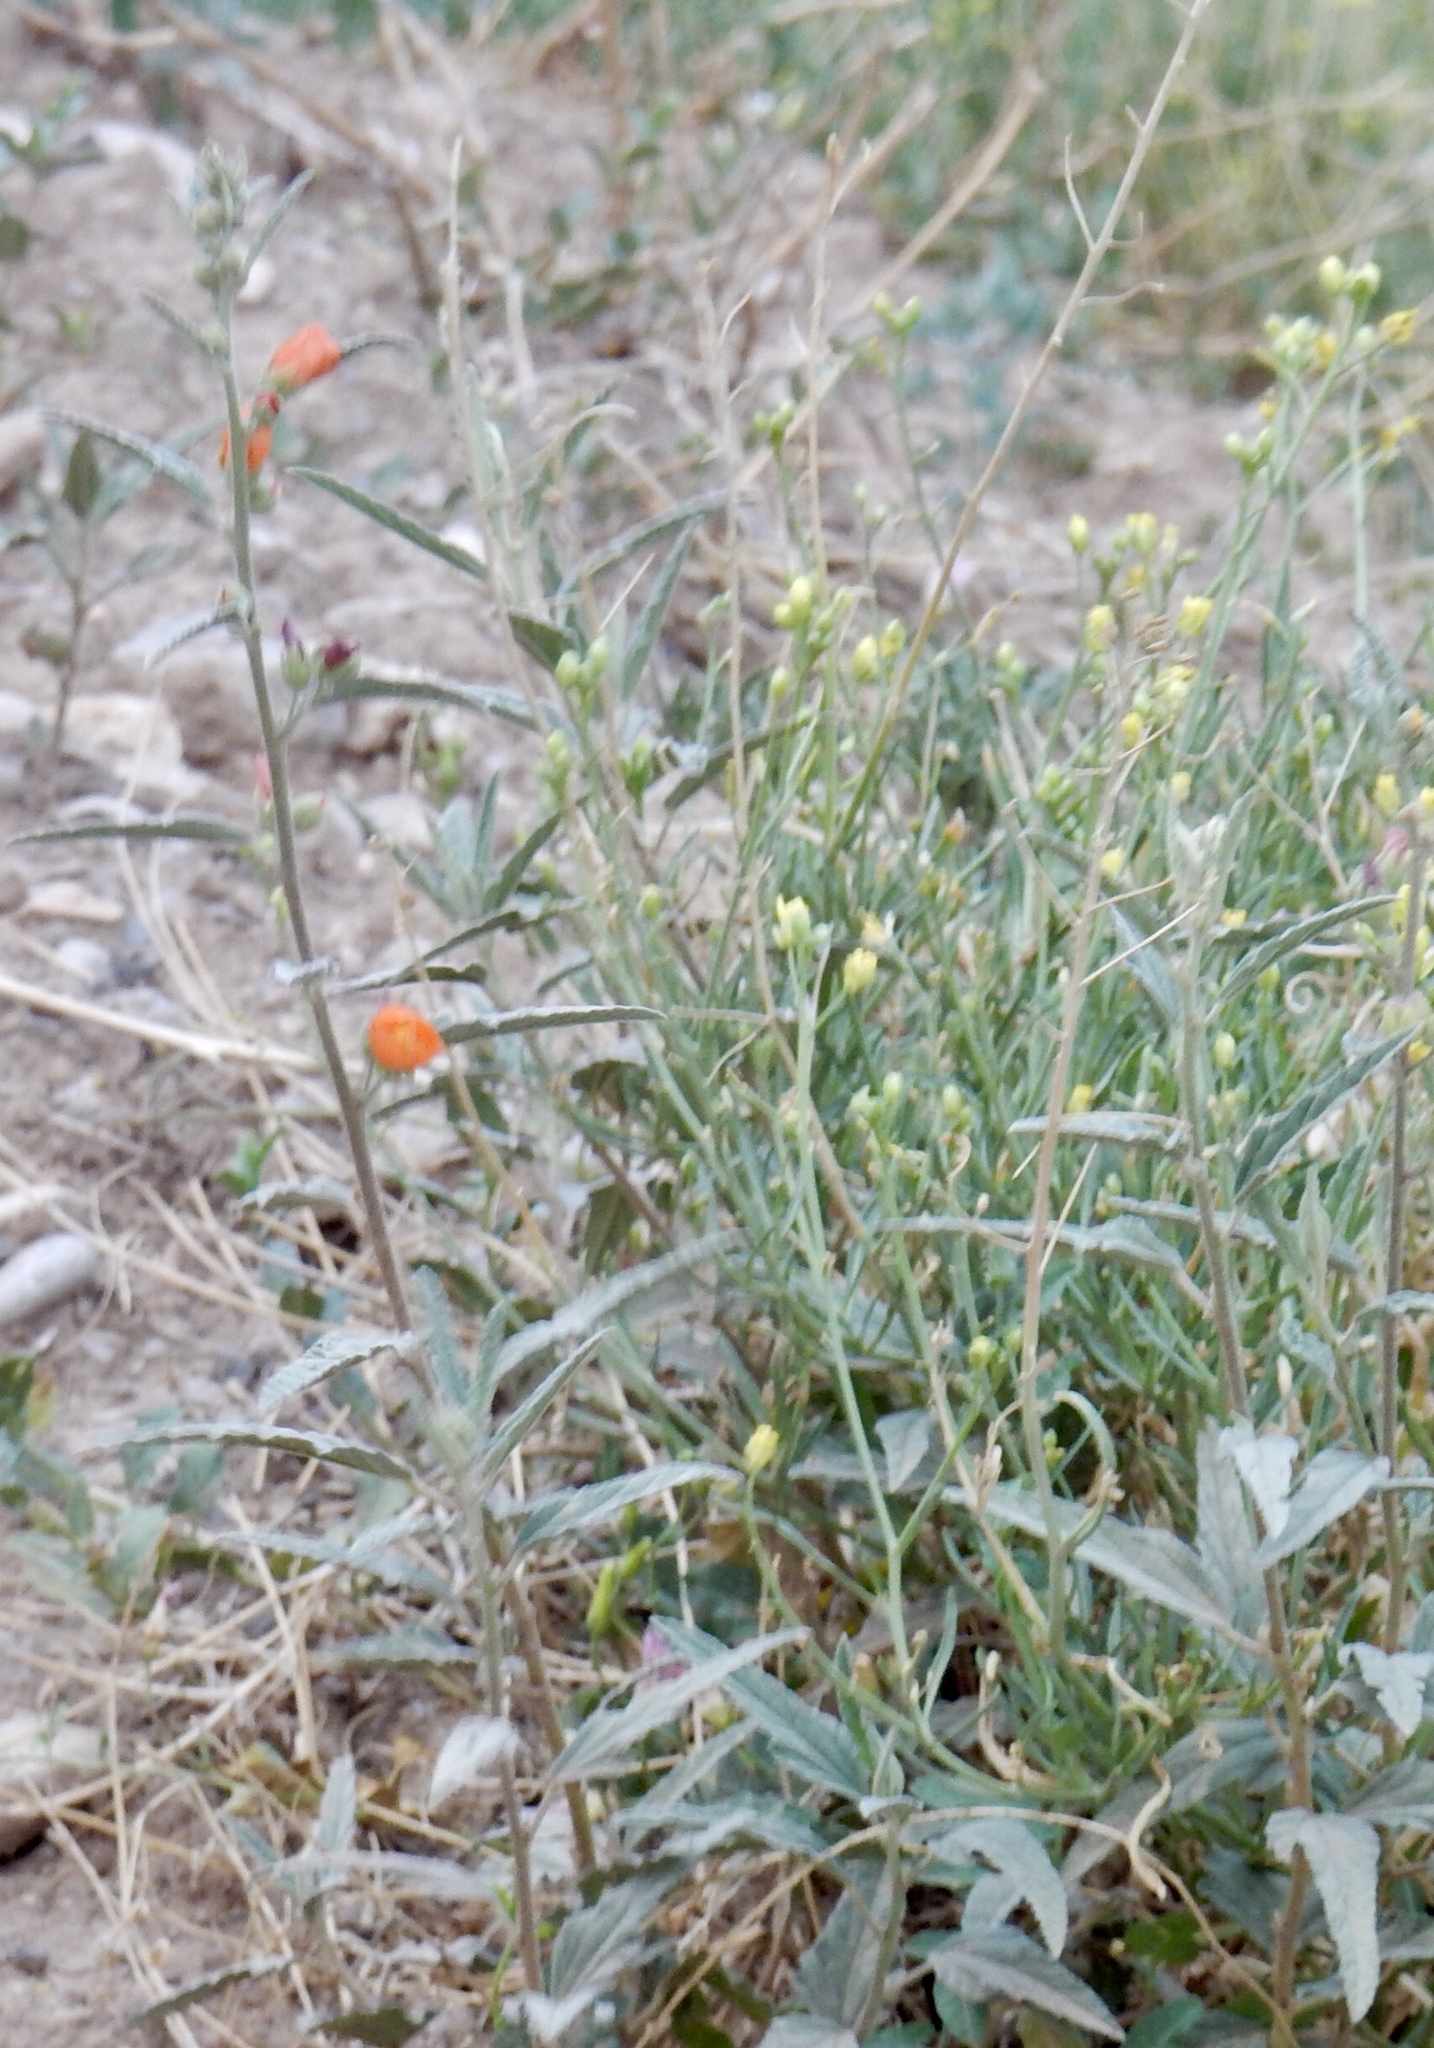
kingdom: Plantae
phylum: Tracheophyta
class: Magnoliopsida
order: Malvales
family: Malvaceae
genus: Sphaeralcea
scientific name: Sphaeralcea angustifolia
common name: Copper globe-mallow
